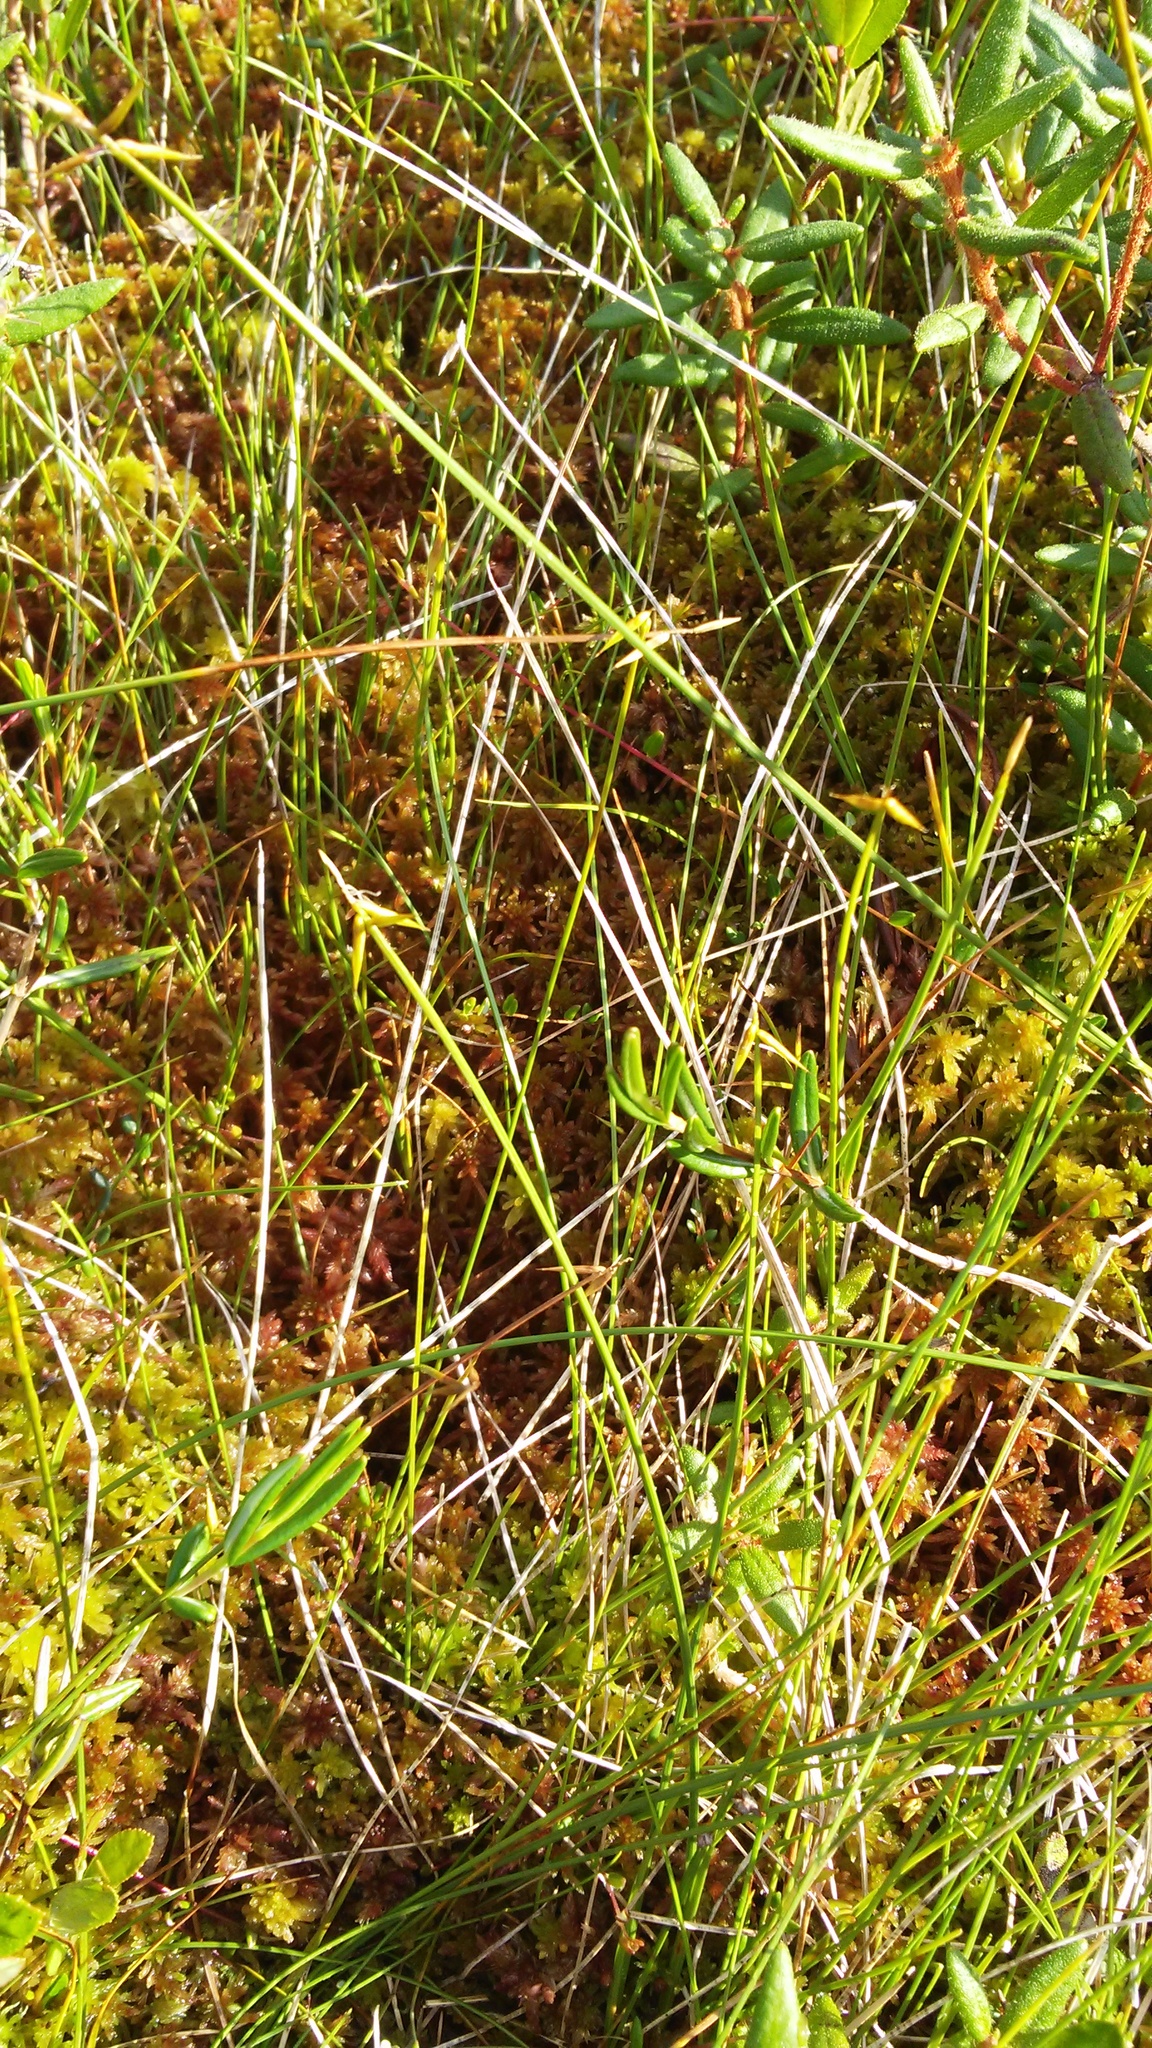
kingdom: Plantae
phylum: Tracheophyta
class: Liliopsida
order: Poales
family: Cyperaceae
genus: Carex
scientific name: Carex pauciflora
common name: Few-flowered sedge
